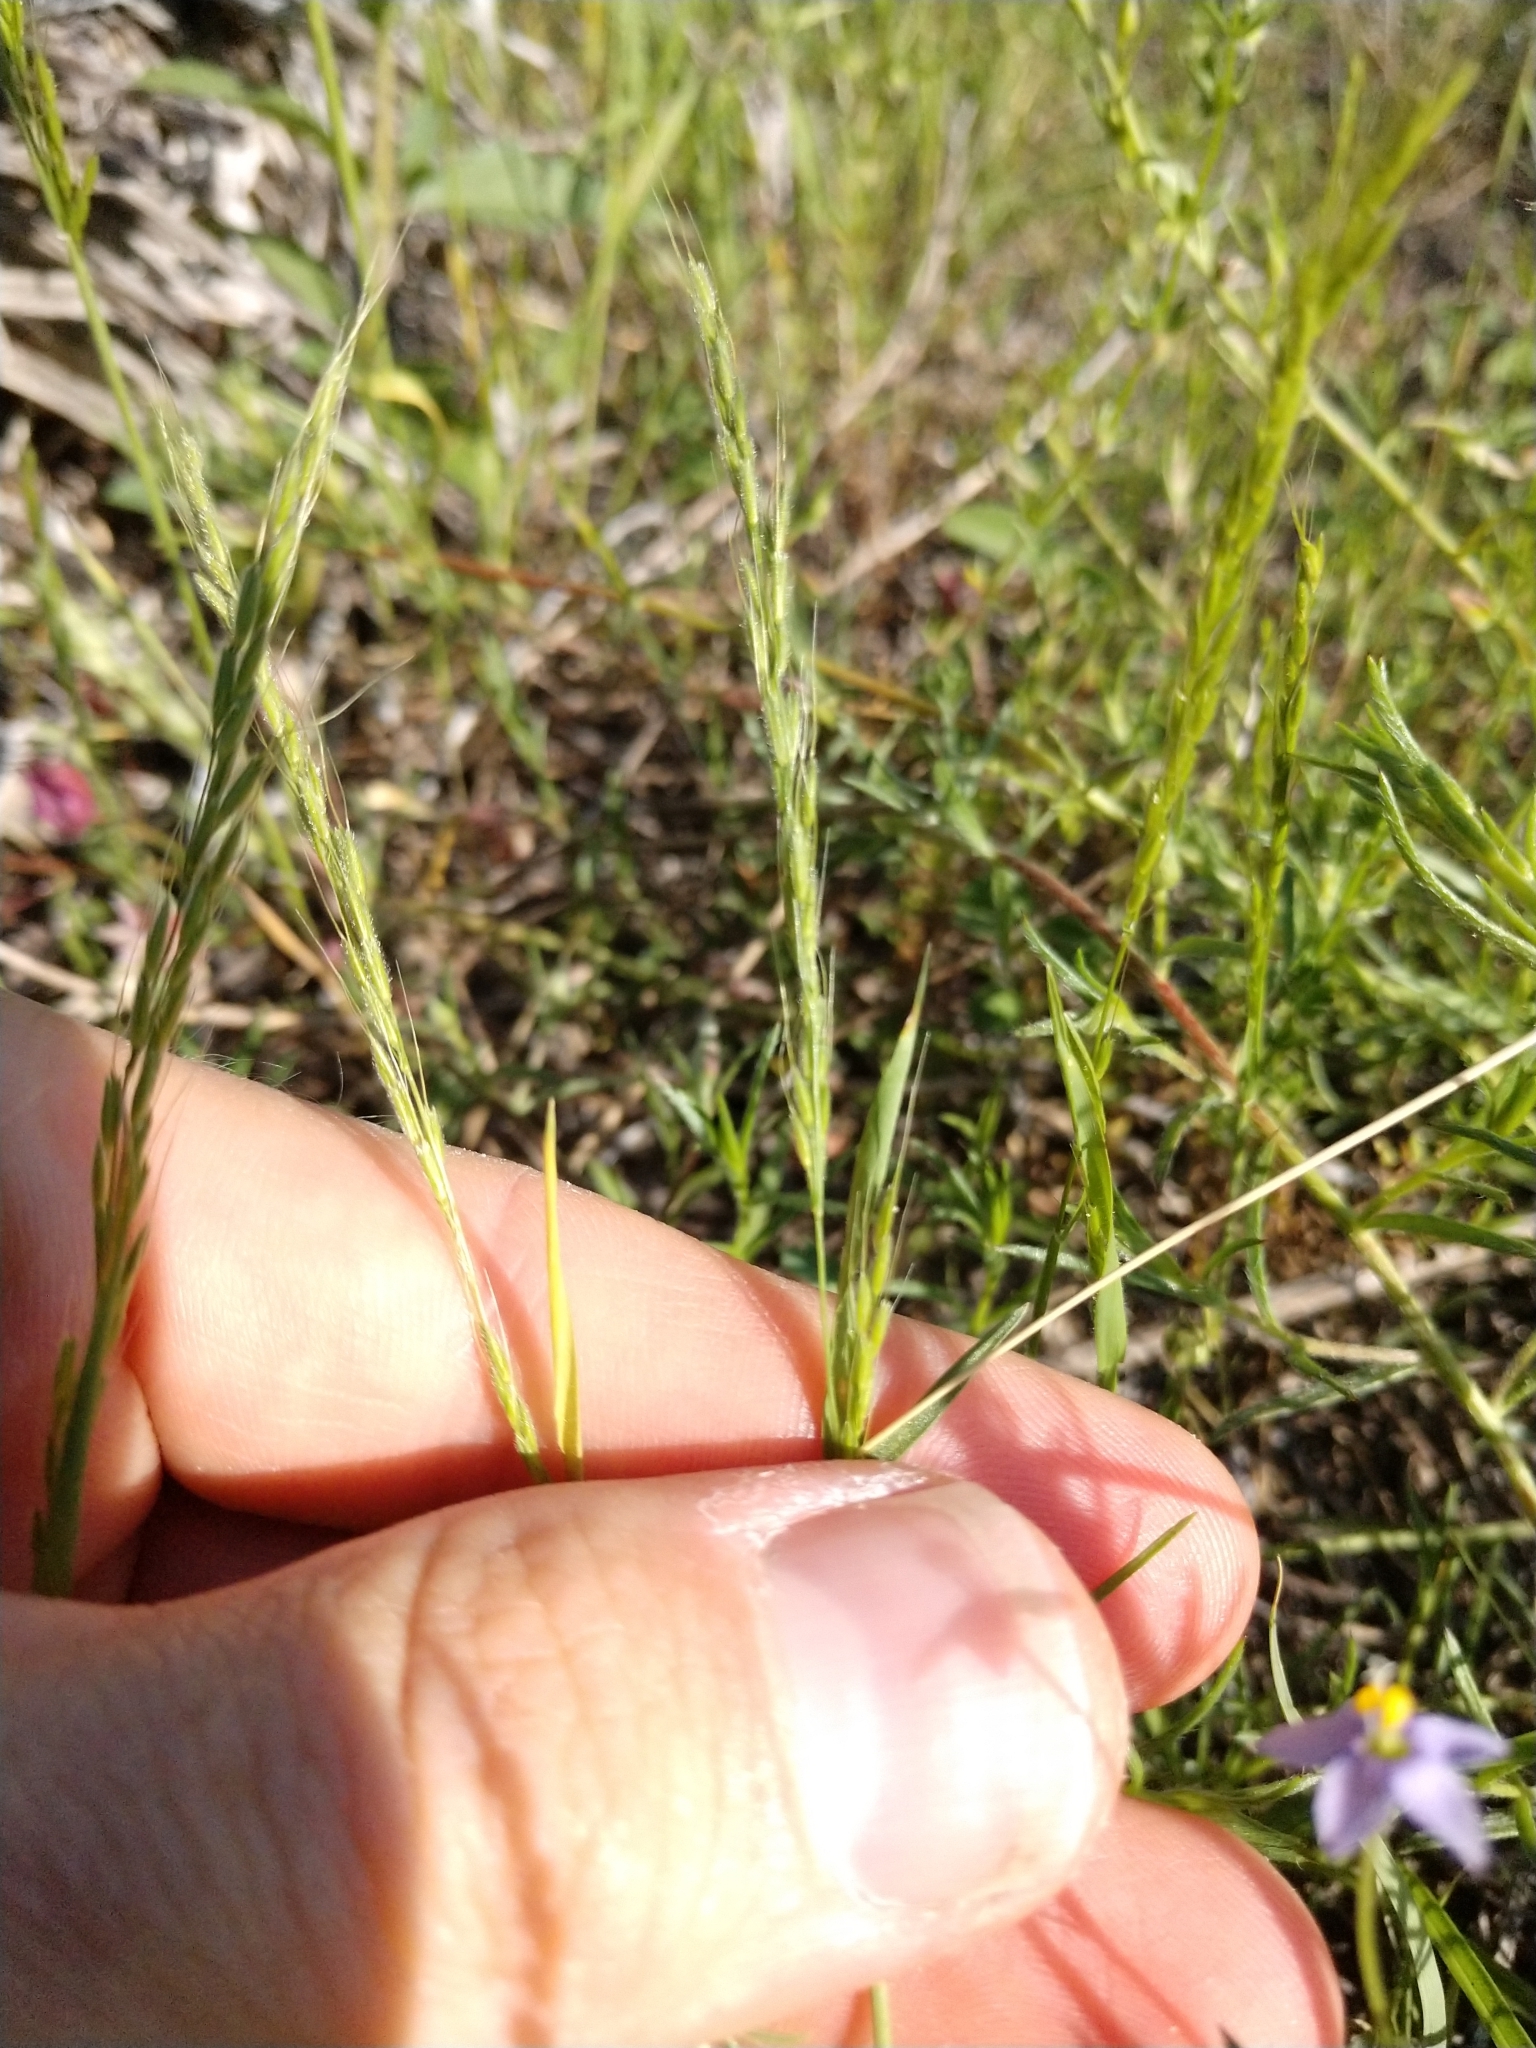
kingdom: Plantae
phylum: Tracheophyta
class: Liliopsida
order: Poales
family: Poaceae
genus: Limnodea
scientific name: Limnodea arkansana
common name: Ozark-grass
